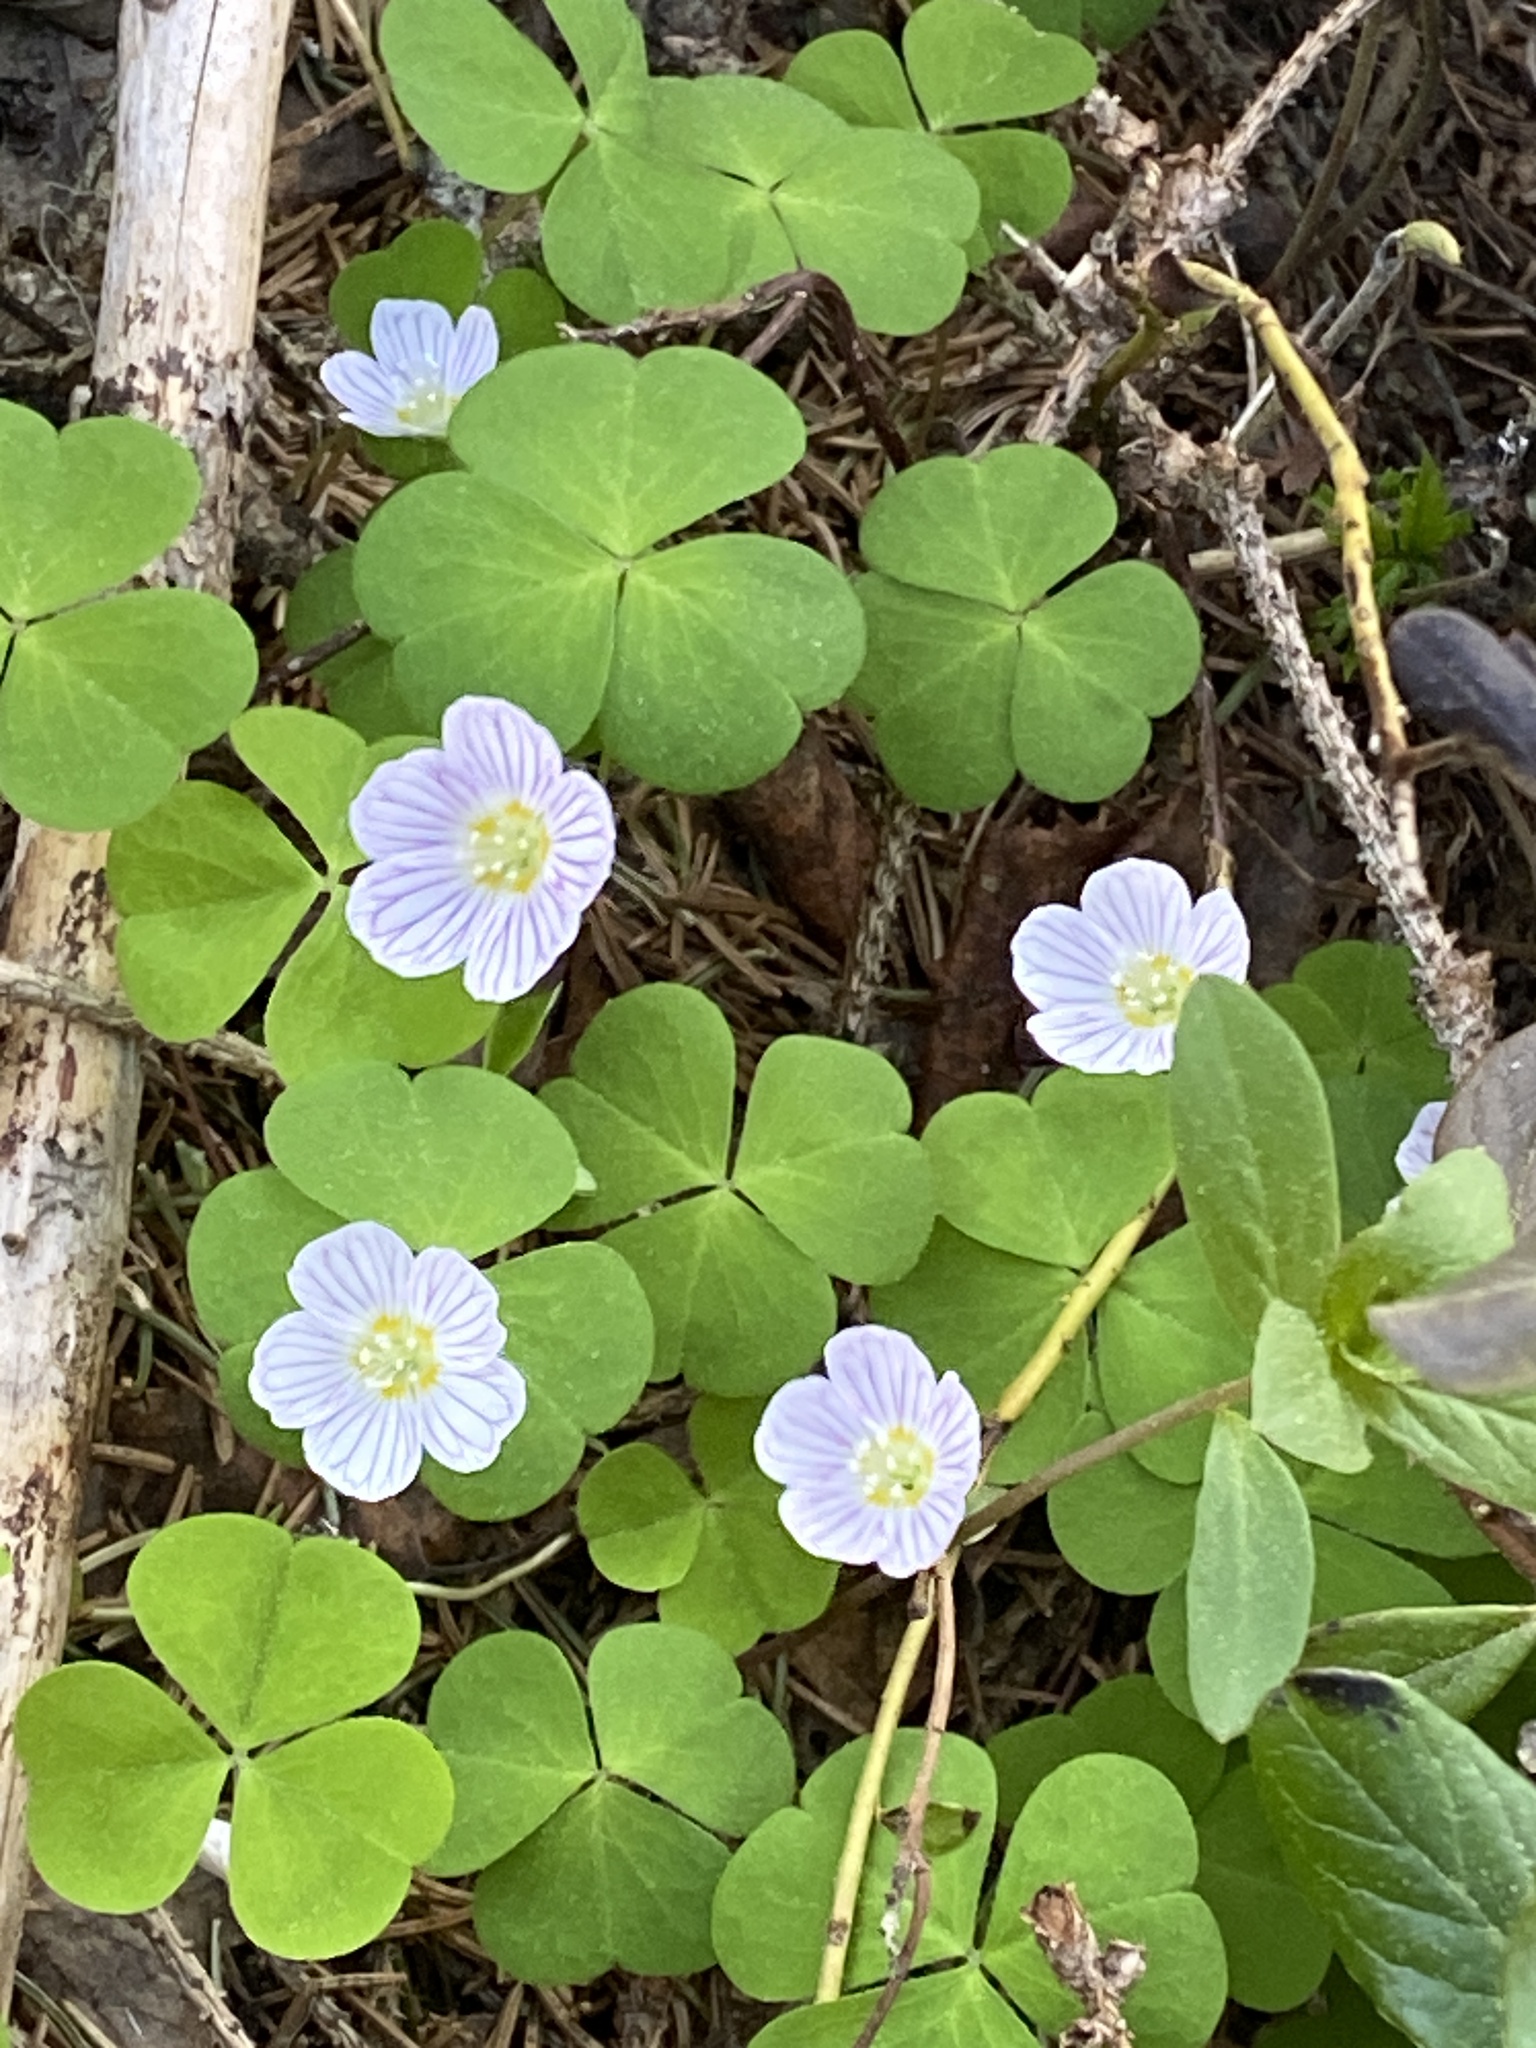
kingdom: Plantae
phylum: Tracheophyta
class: Magnoliopsida
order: Oxalidales
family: Oxalidaceae
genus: Oxalis
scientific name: Oxalis acetosella
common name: Wood-sorrel
